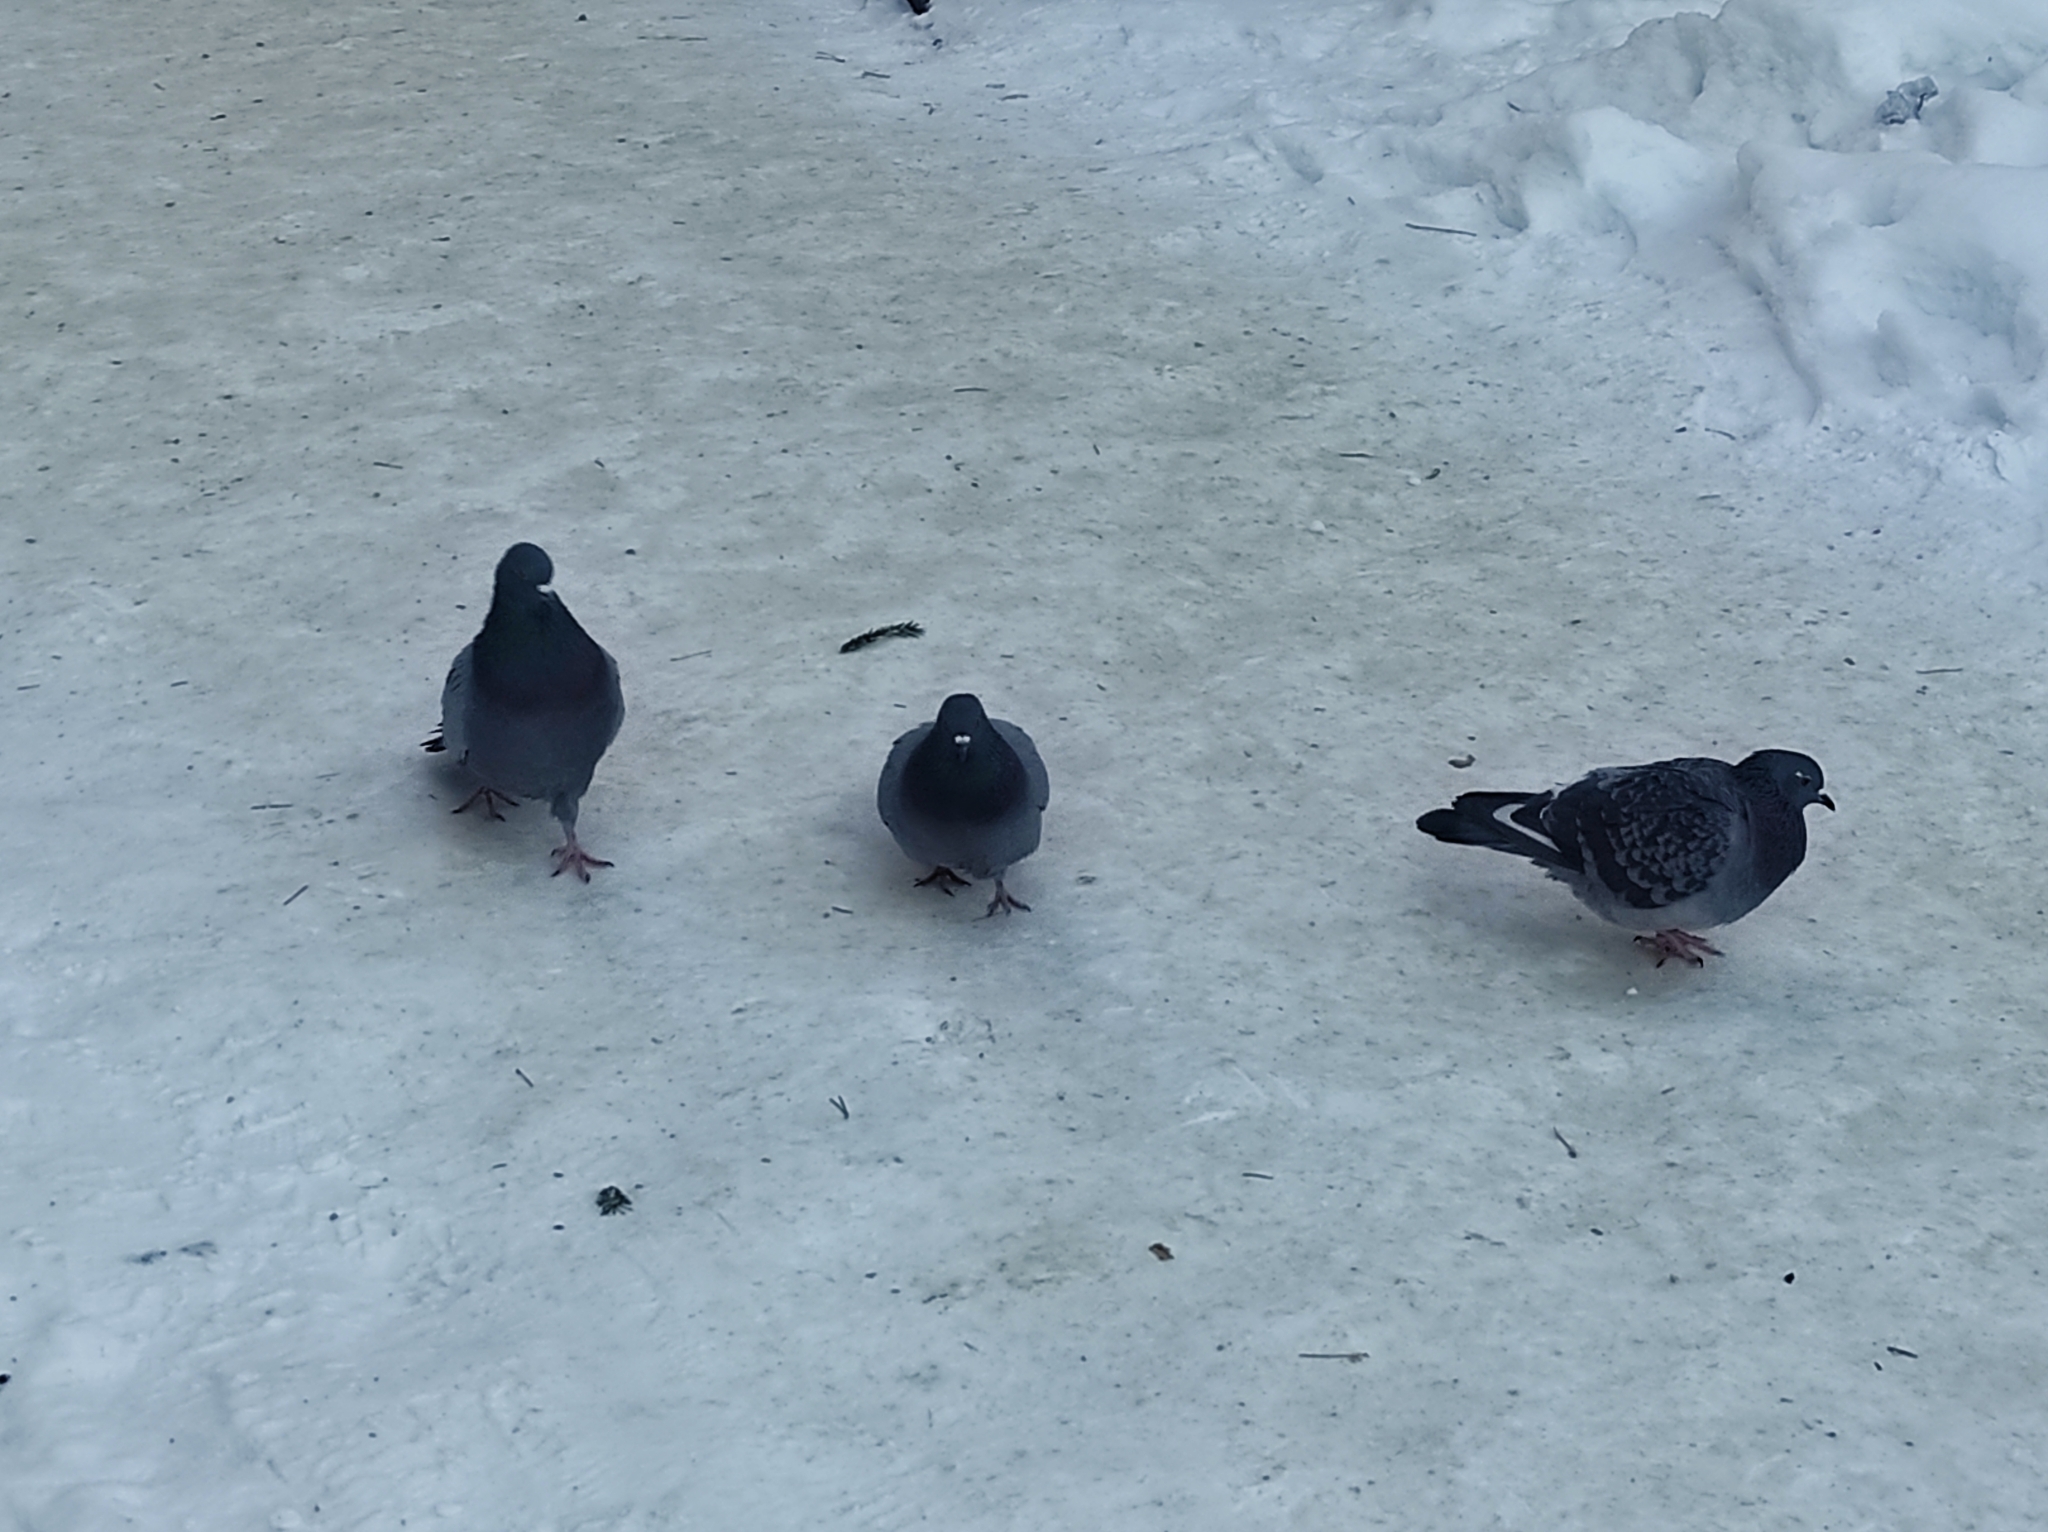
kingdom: Animalia
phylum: Chordata
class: Aves
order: Columbiformes
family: Columbidae
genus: Columba
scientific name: Columba livia
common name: Rock pigeon
